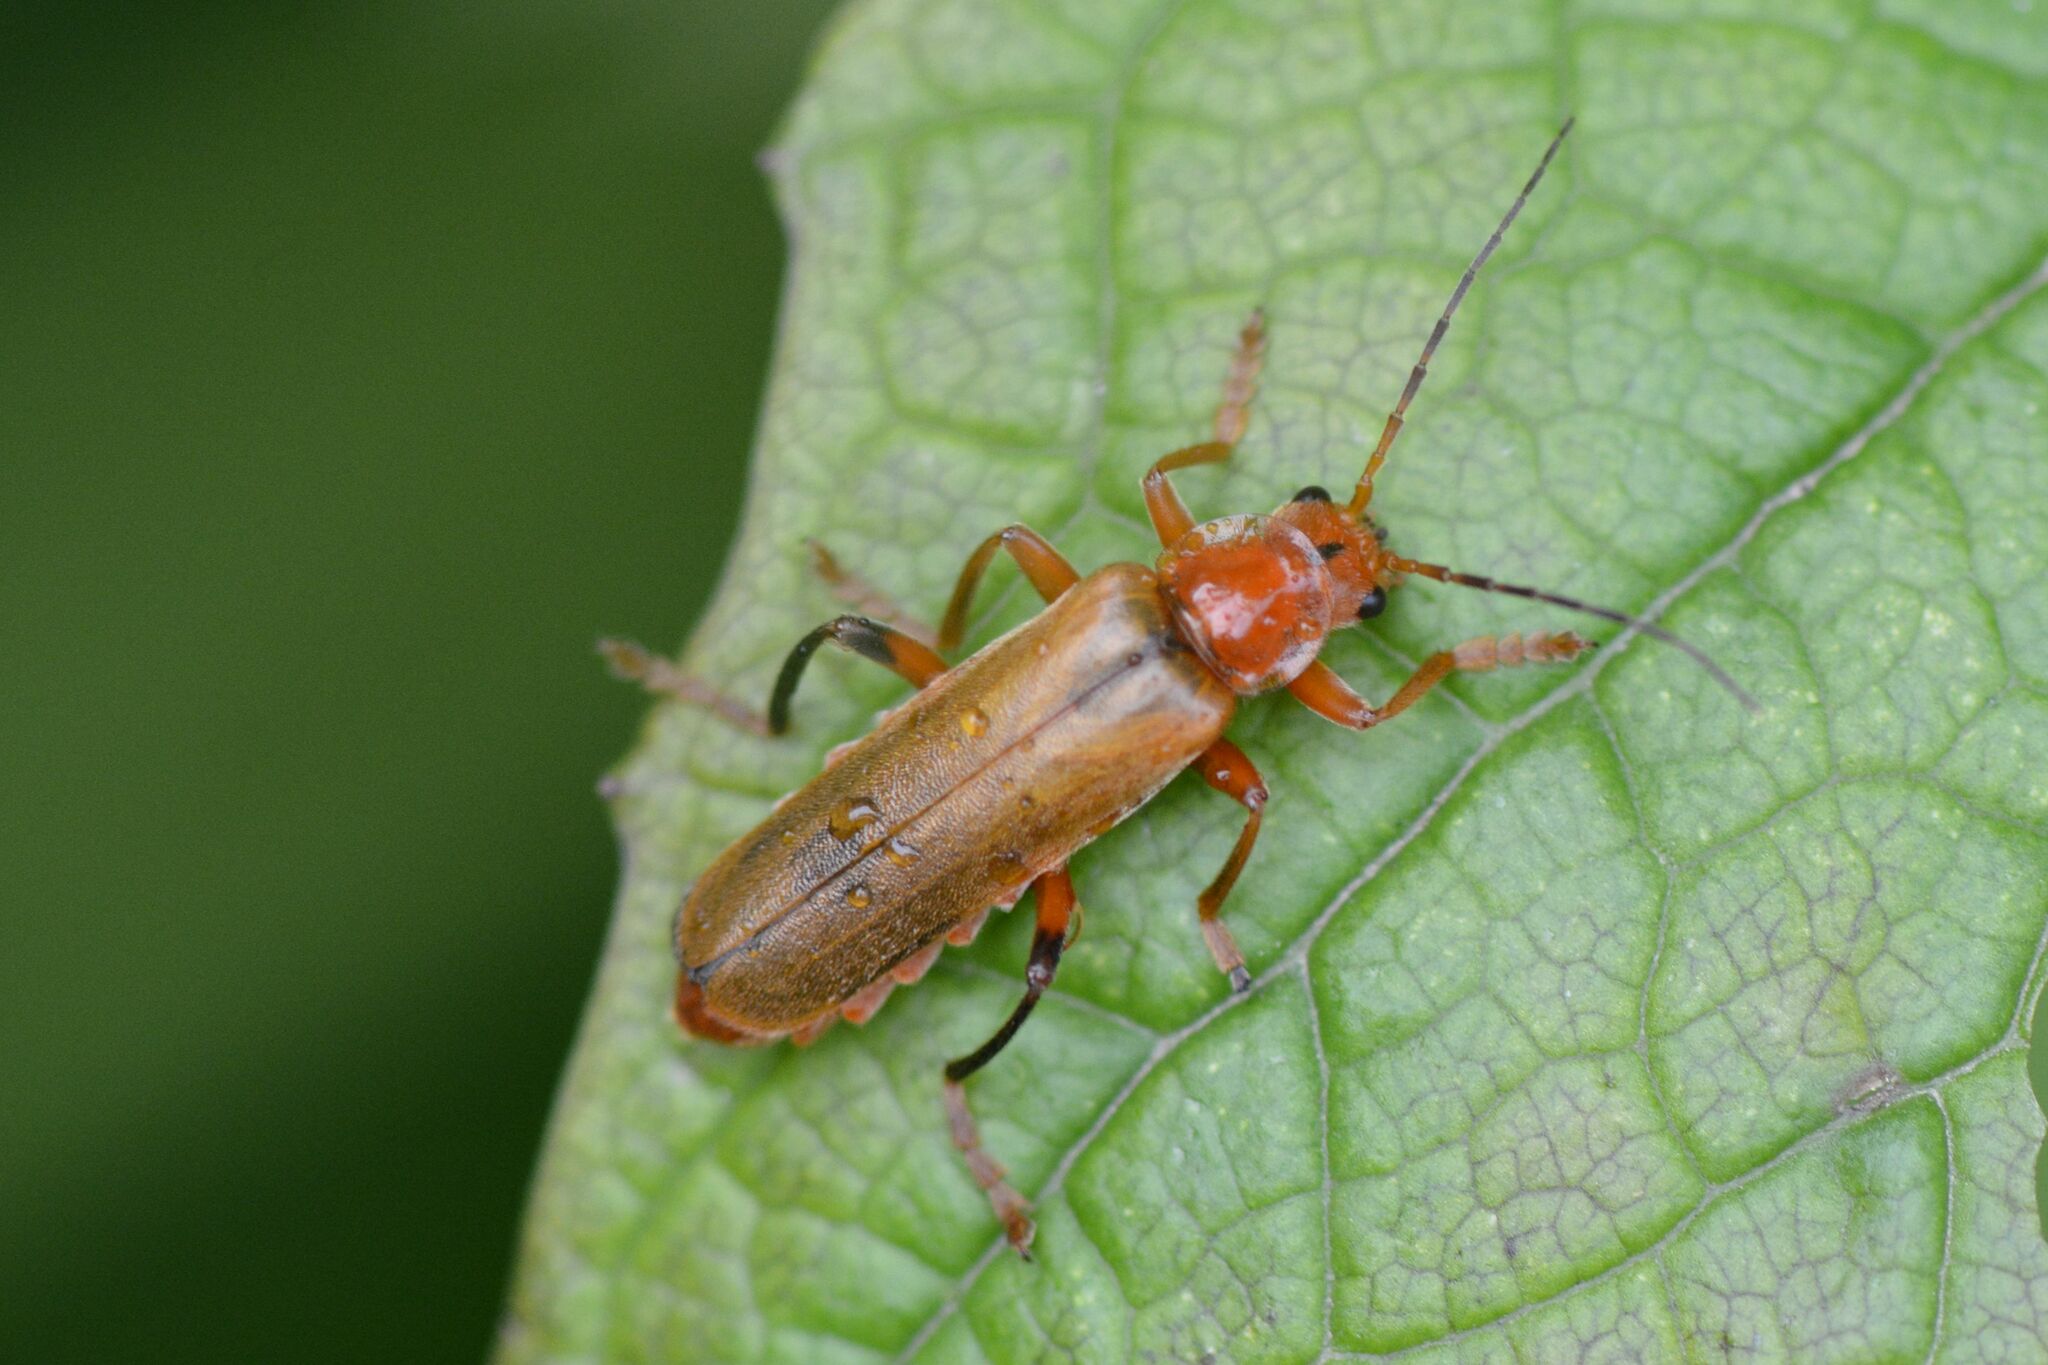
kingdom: Animalia
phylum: Arthropoda
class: Insecta
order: Coleoptera
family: Cantharidae
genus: Cantharis
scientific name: Cantharis livida
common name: Livid soldier beetle
